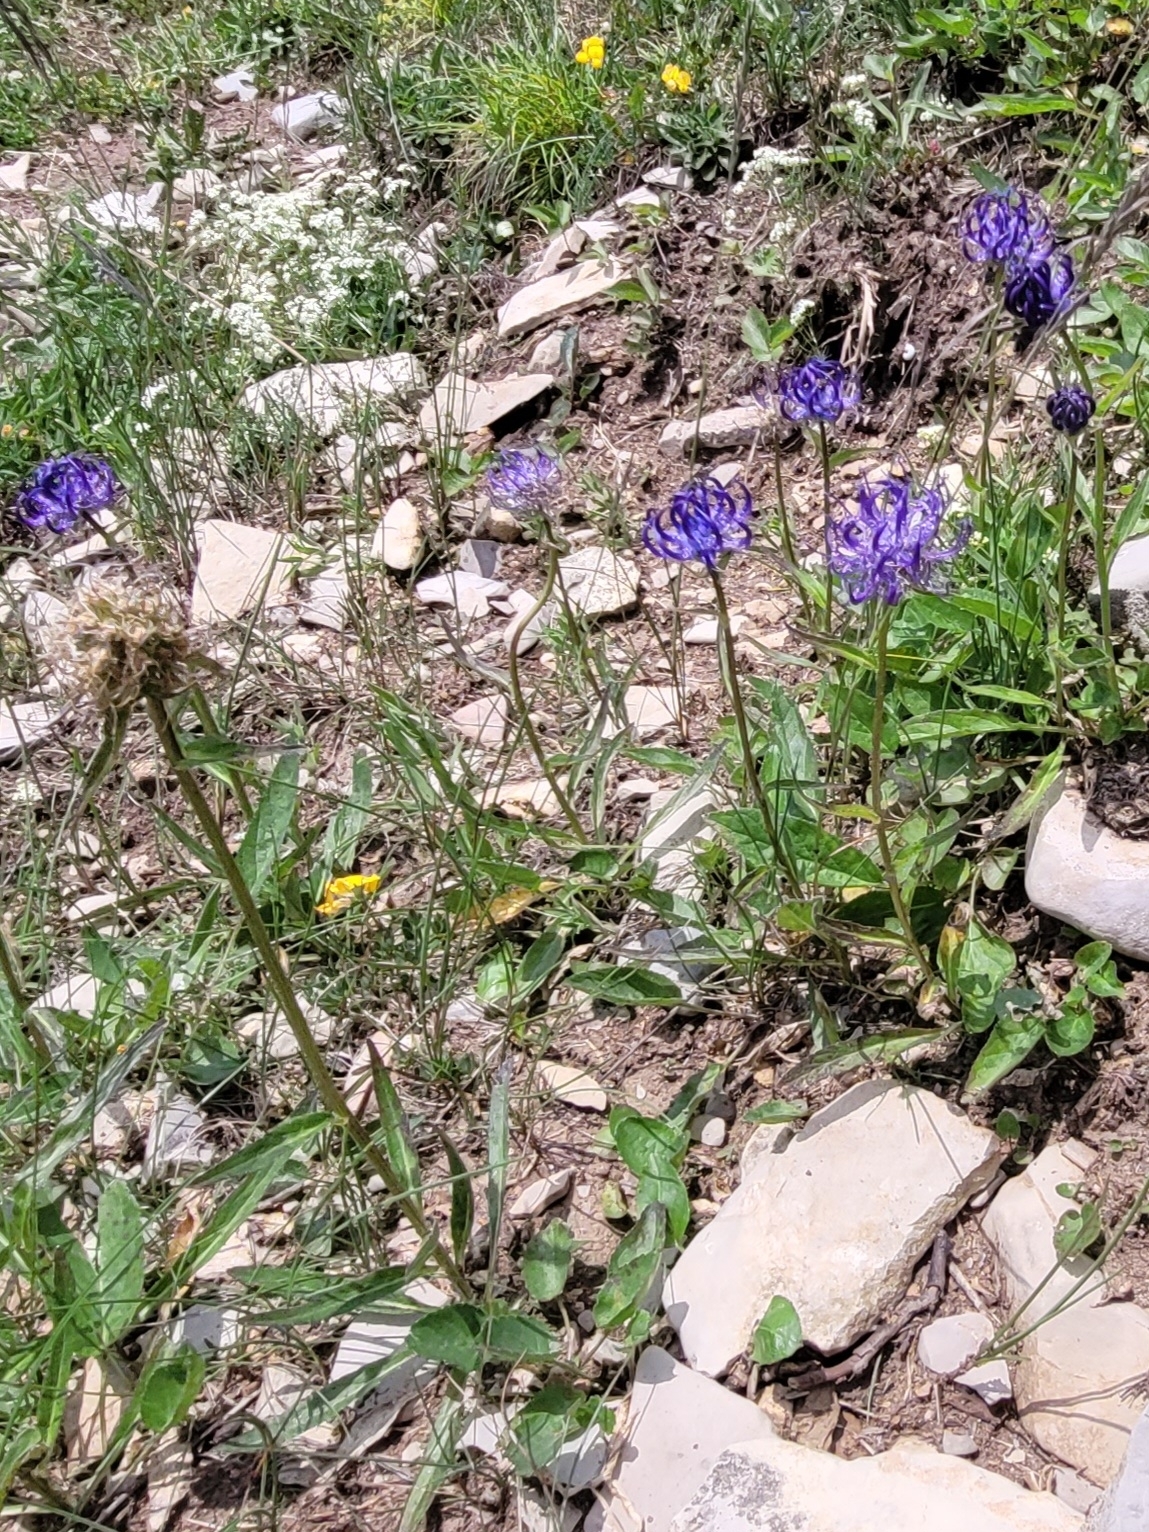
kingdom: Plantae
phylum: Tracheophyta
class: Magnoliopsida
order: Asterales
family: Campanulaceae
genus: Phyteuma
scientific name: Phyteuma orbiculare
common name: Round-headed rampion
